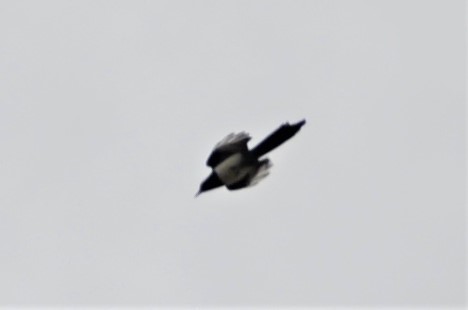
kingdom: Animalia
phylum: Chordata
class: Aves
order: Passeriformes
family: Corvidae
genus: Pica
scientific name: Pica pica
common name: Eurasian magpie
